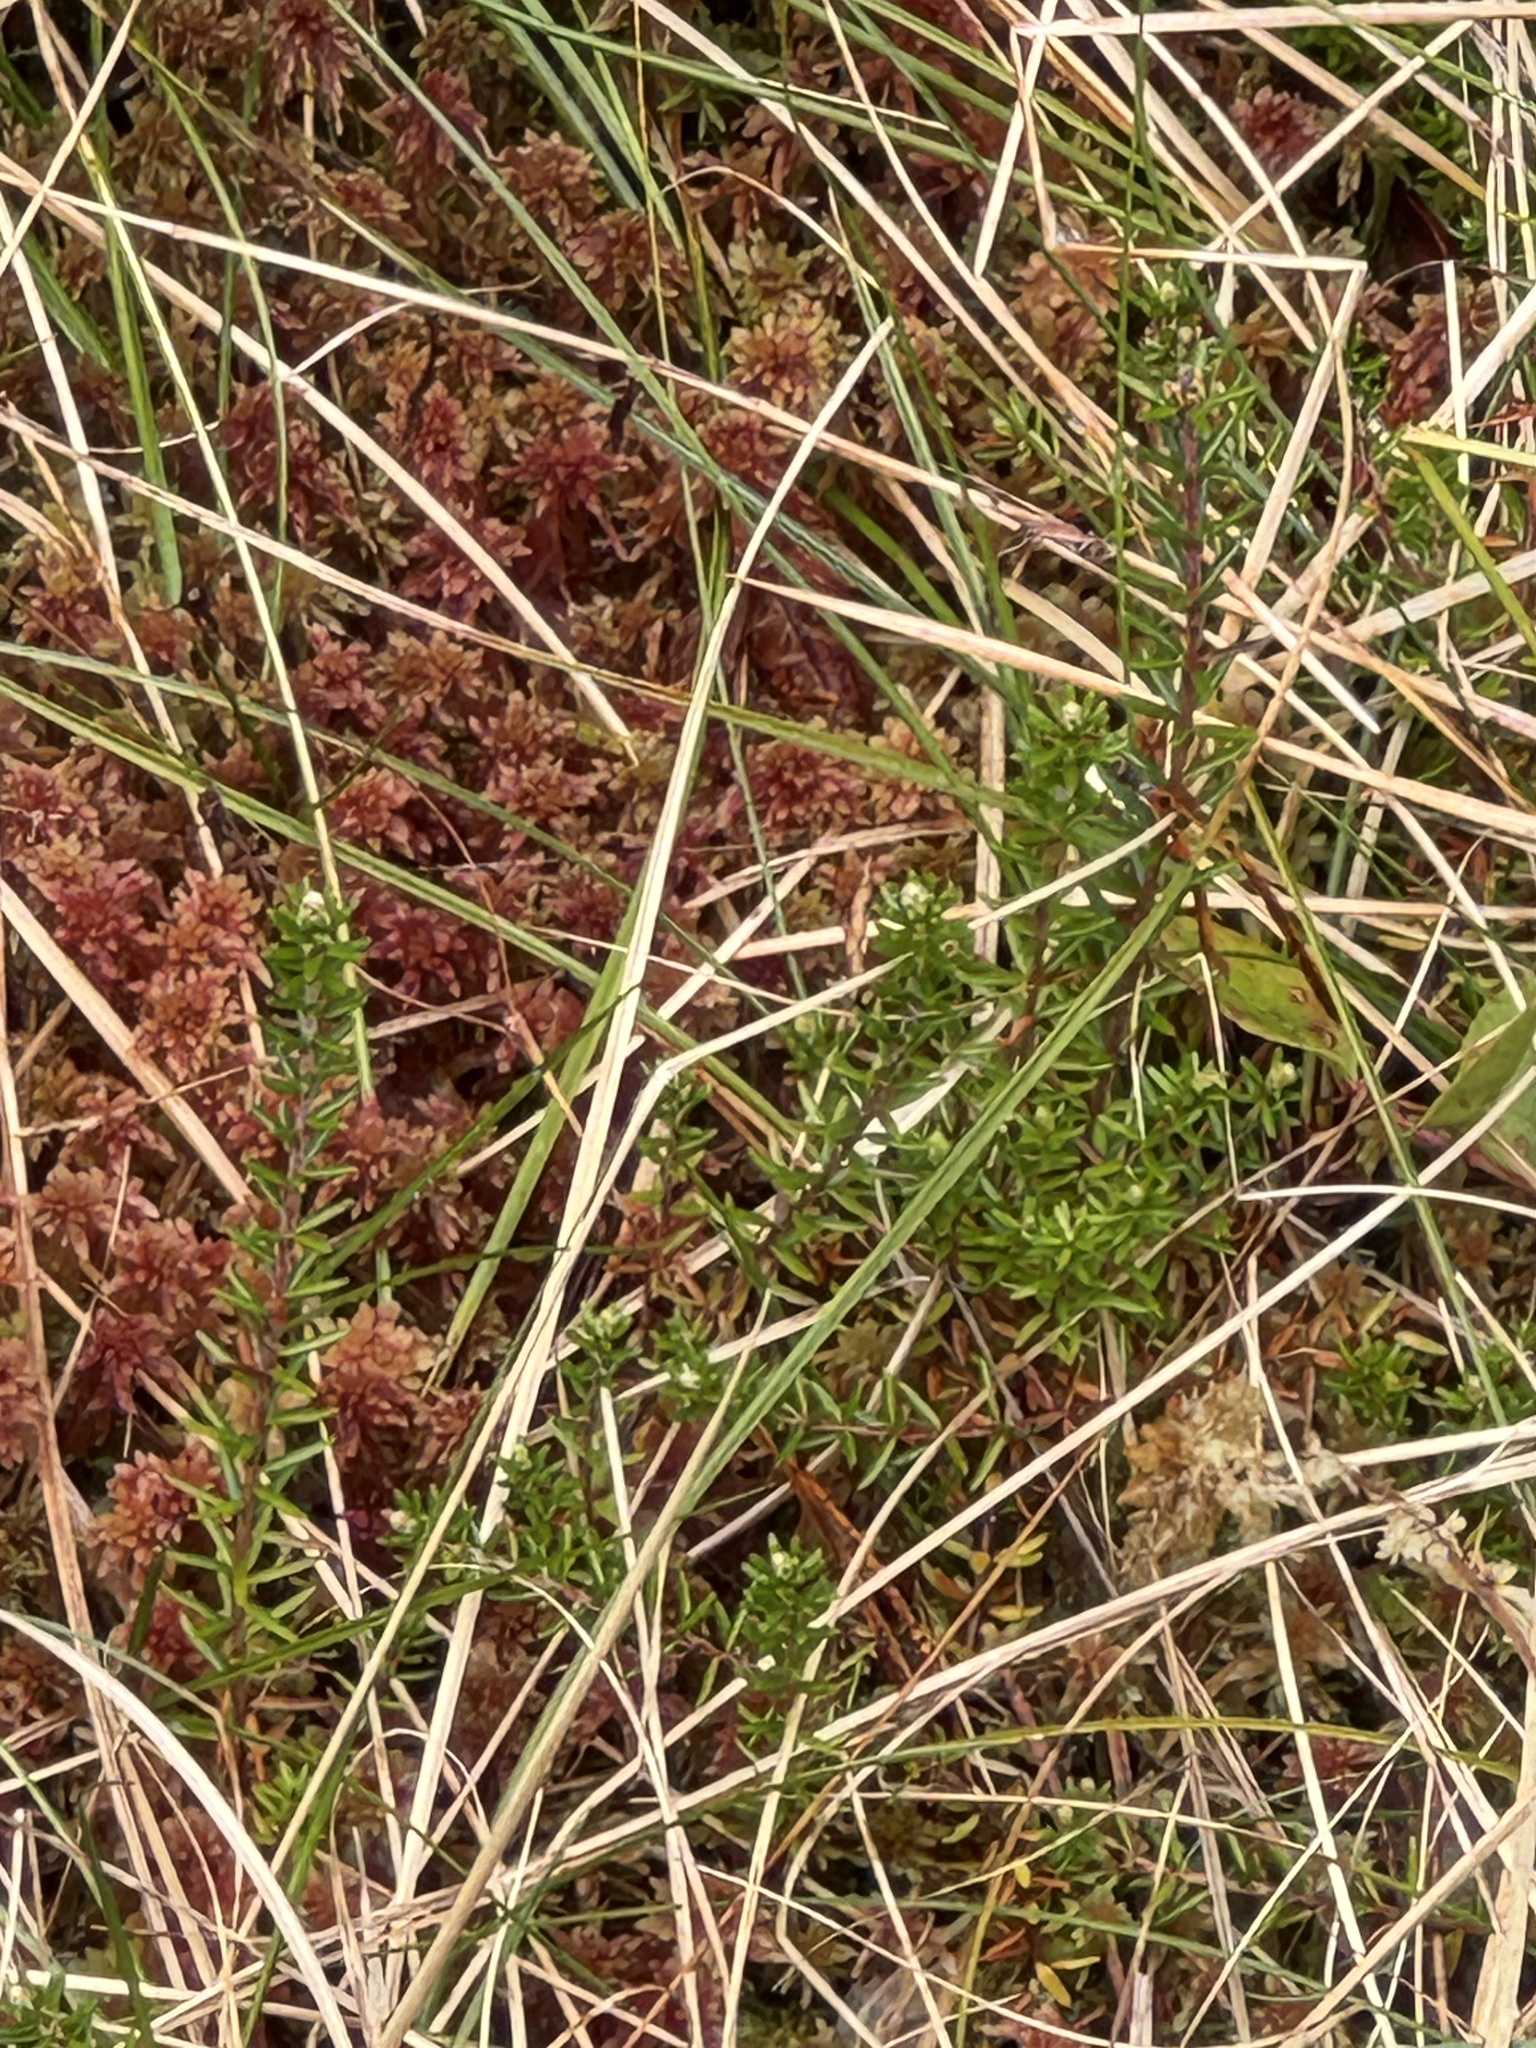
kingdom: Plantae
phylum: Tracheophyta
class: Magnoliopsida
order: Ericales
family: Ericaceae
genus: Empetrum
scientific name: Empetrum nigrum
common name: Black crowberry
